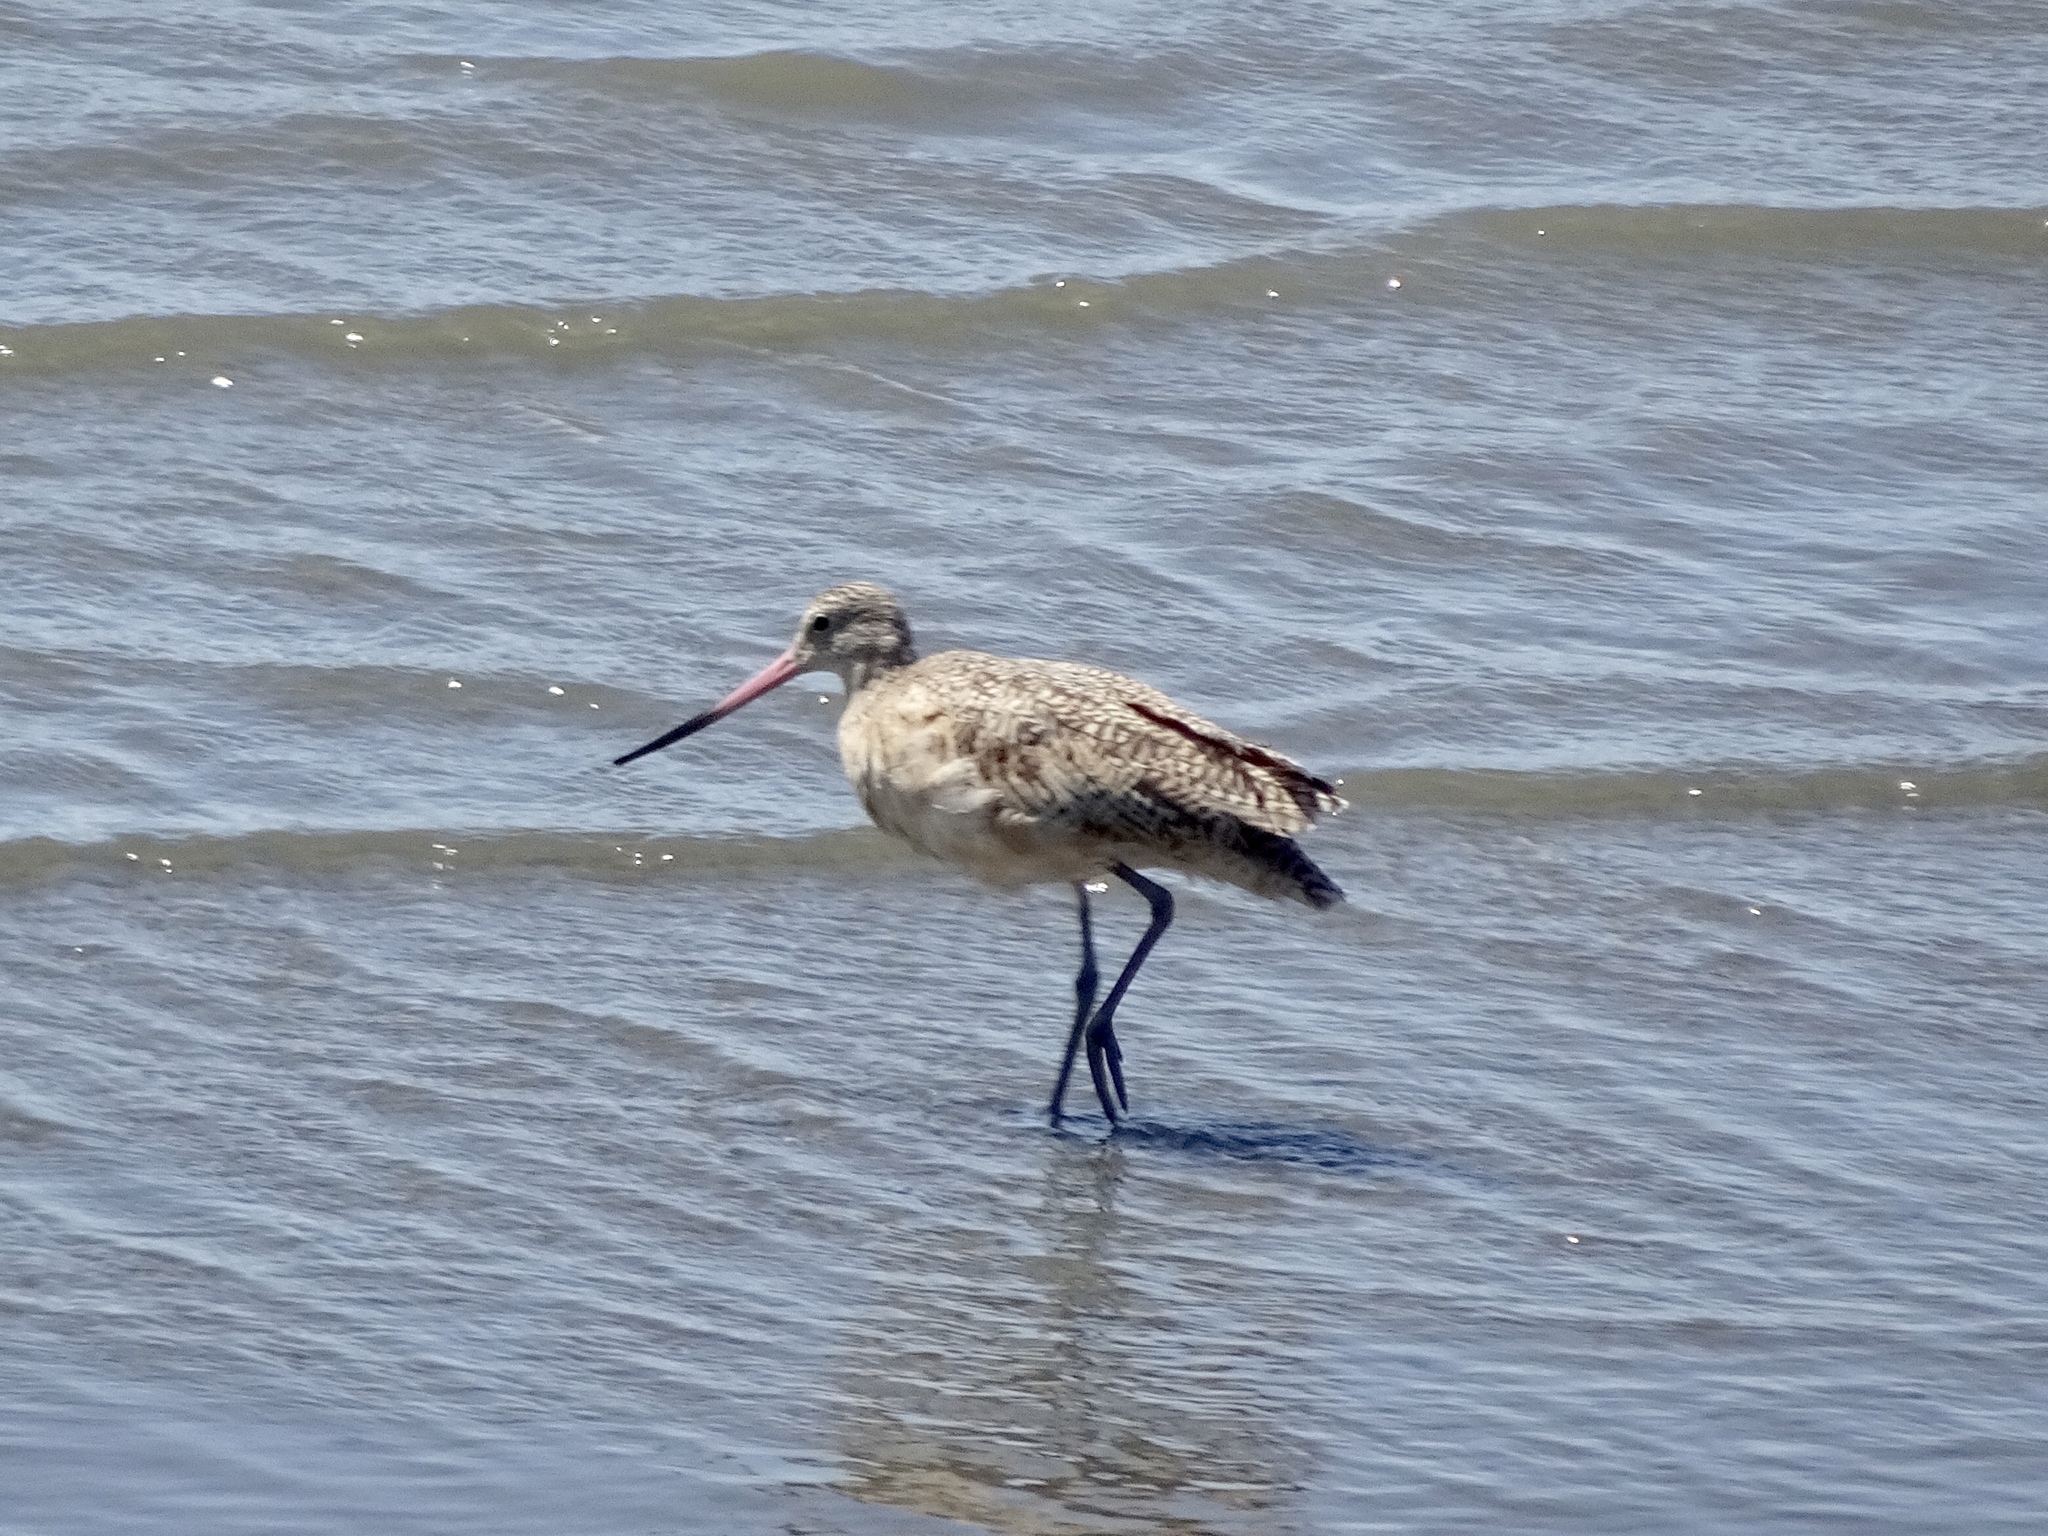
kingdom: Animalia
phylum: Chordata
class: Aves
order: Charadriiformes
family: Scolopacidae
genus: Limosa
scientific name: Limosa fedoa
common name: Marbled godwit
